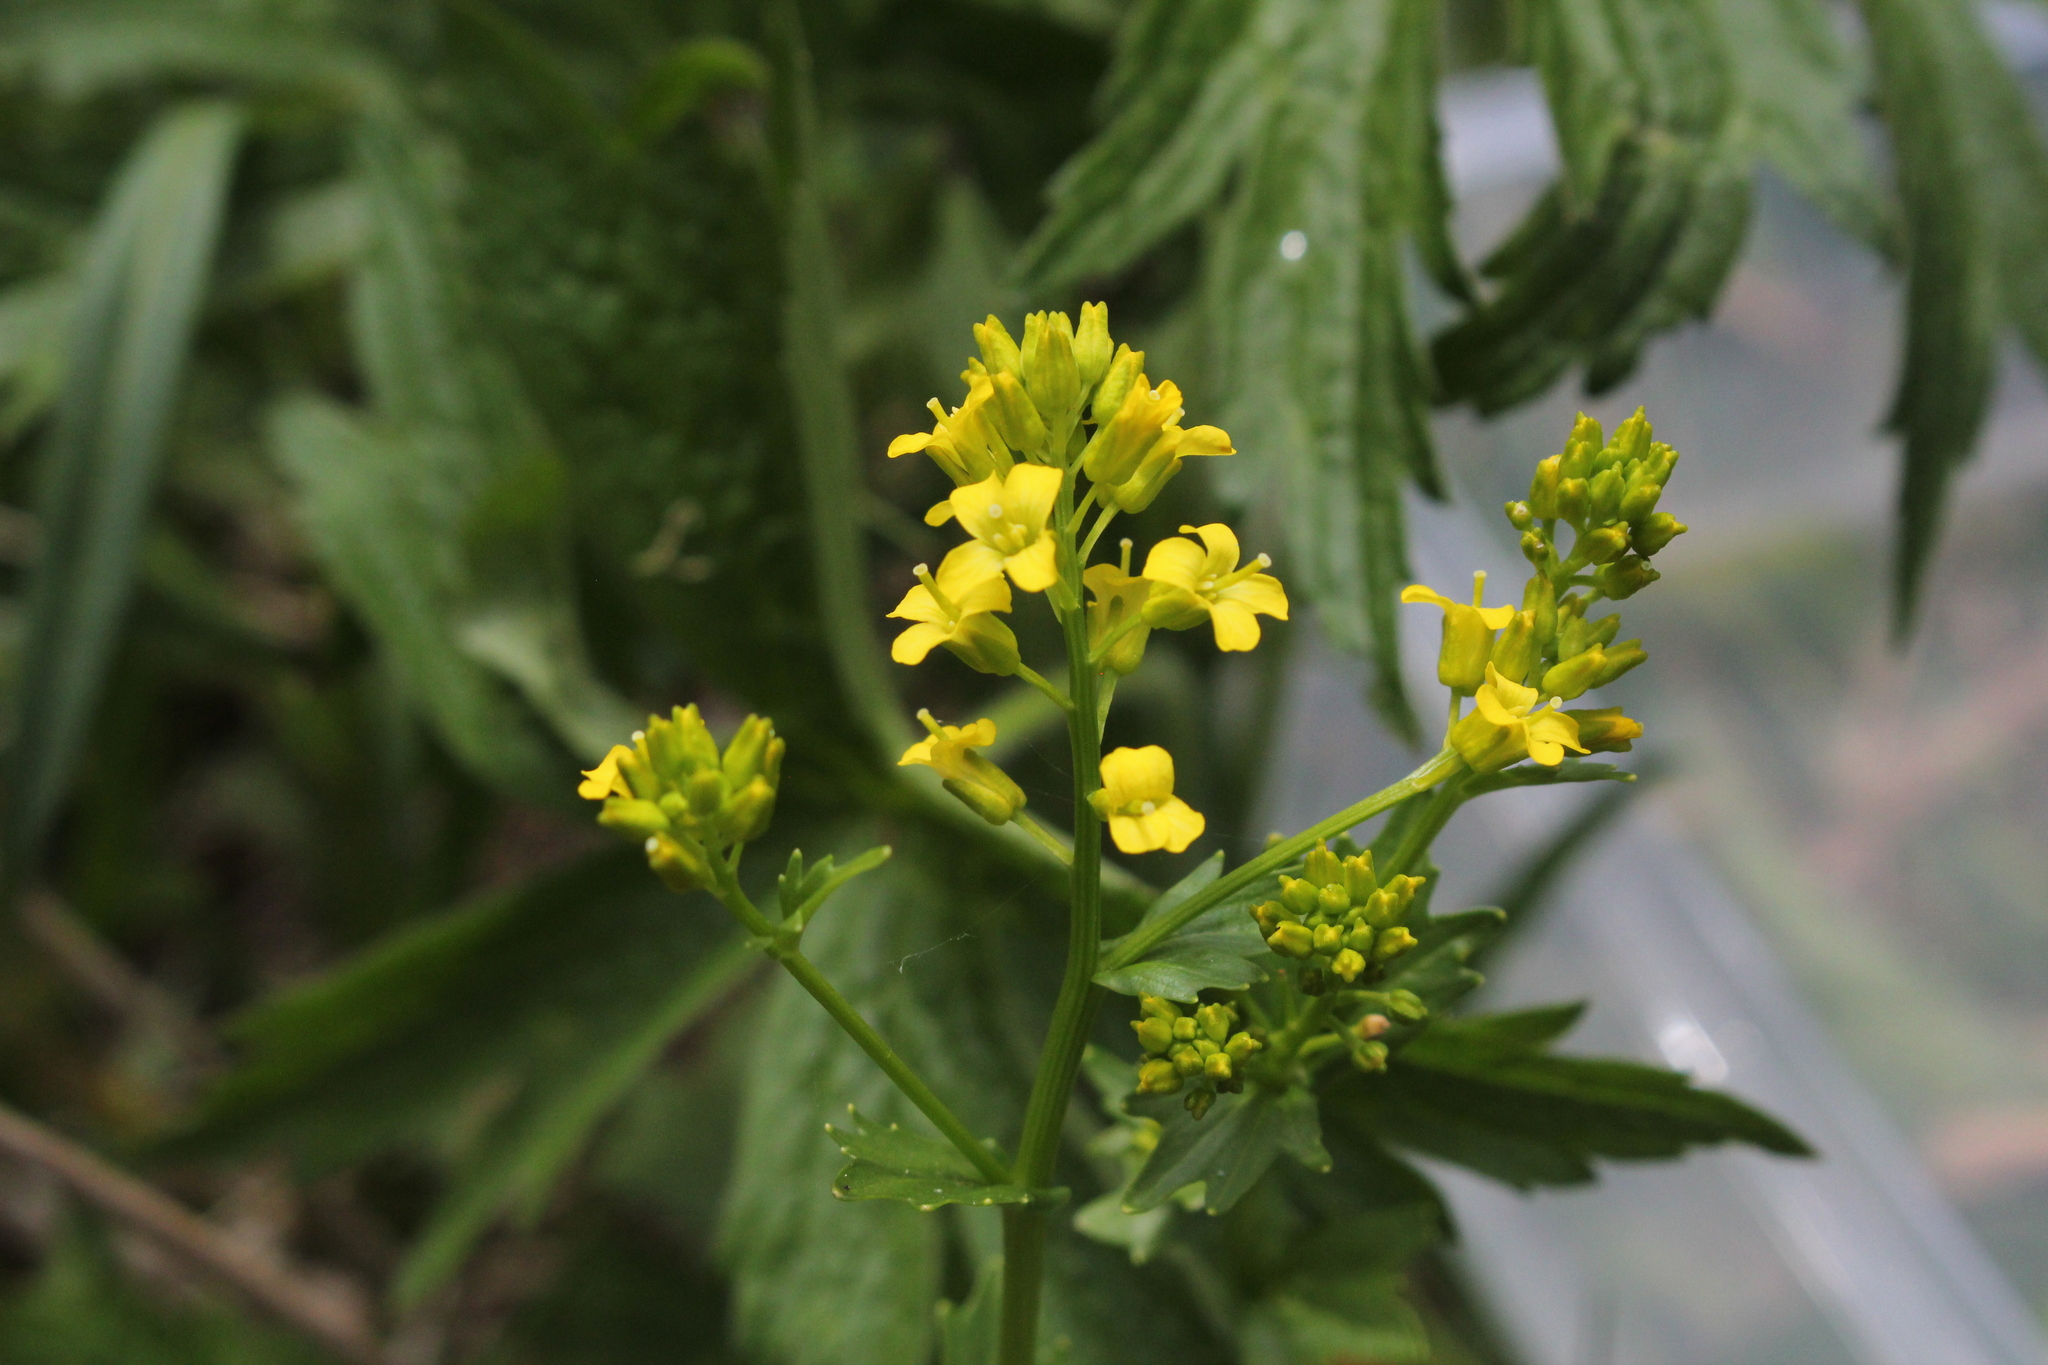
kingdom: Plantae
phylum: Tracheophyta
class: Magnoliopsida
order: Brassicales
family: Brassicaceae
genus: Barbarea
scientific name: Barbarea vulgaris
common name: Cressy-greens
